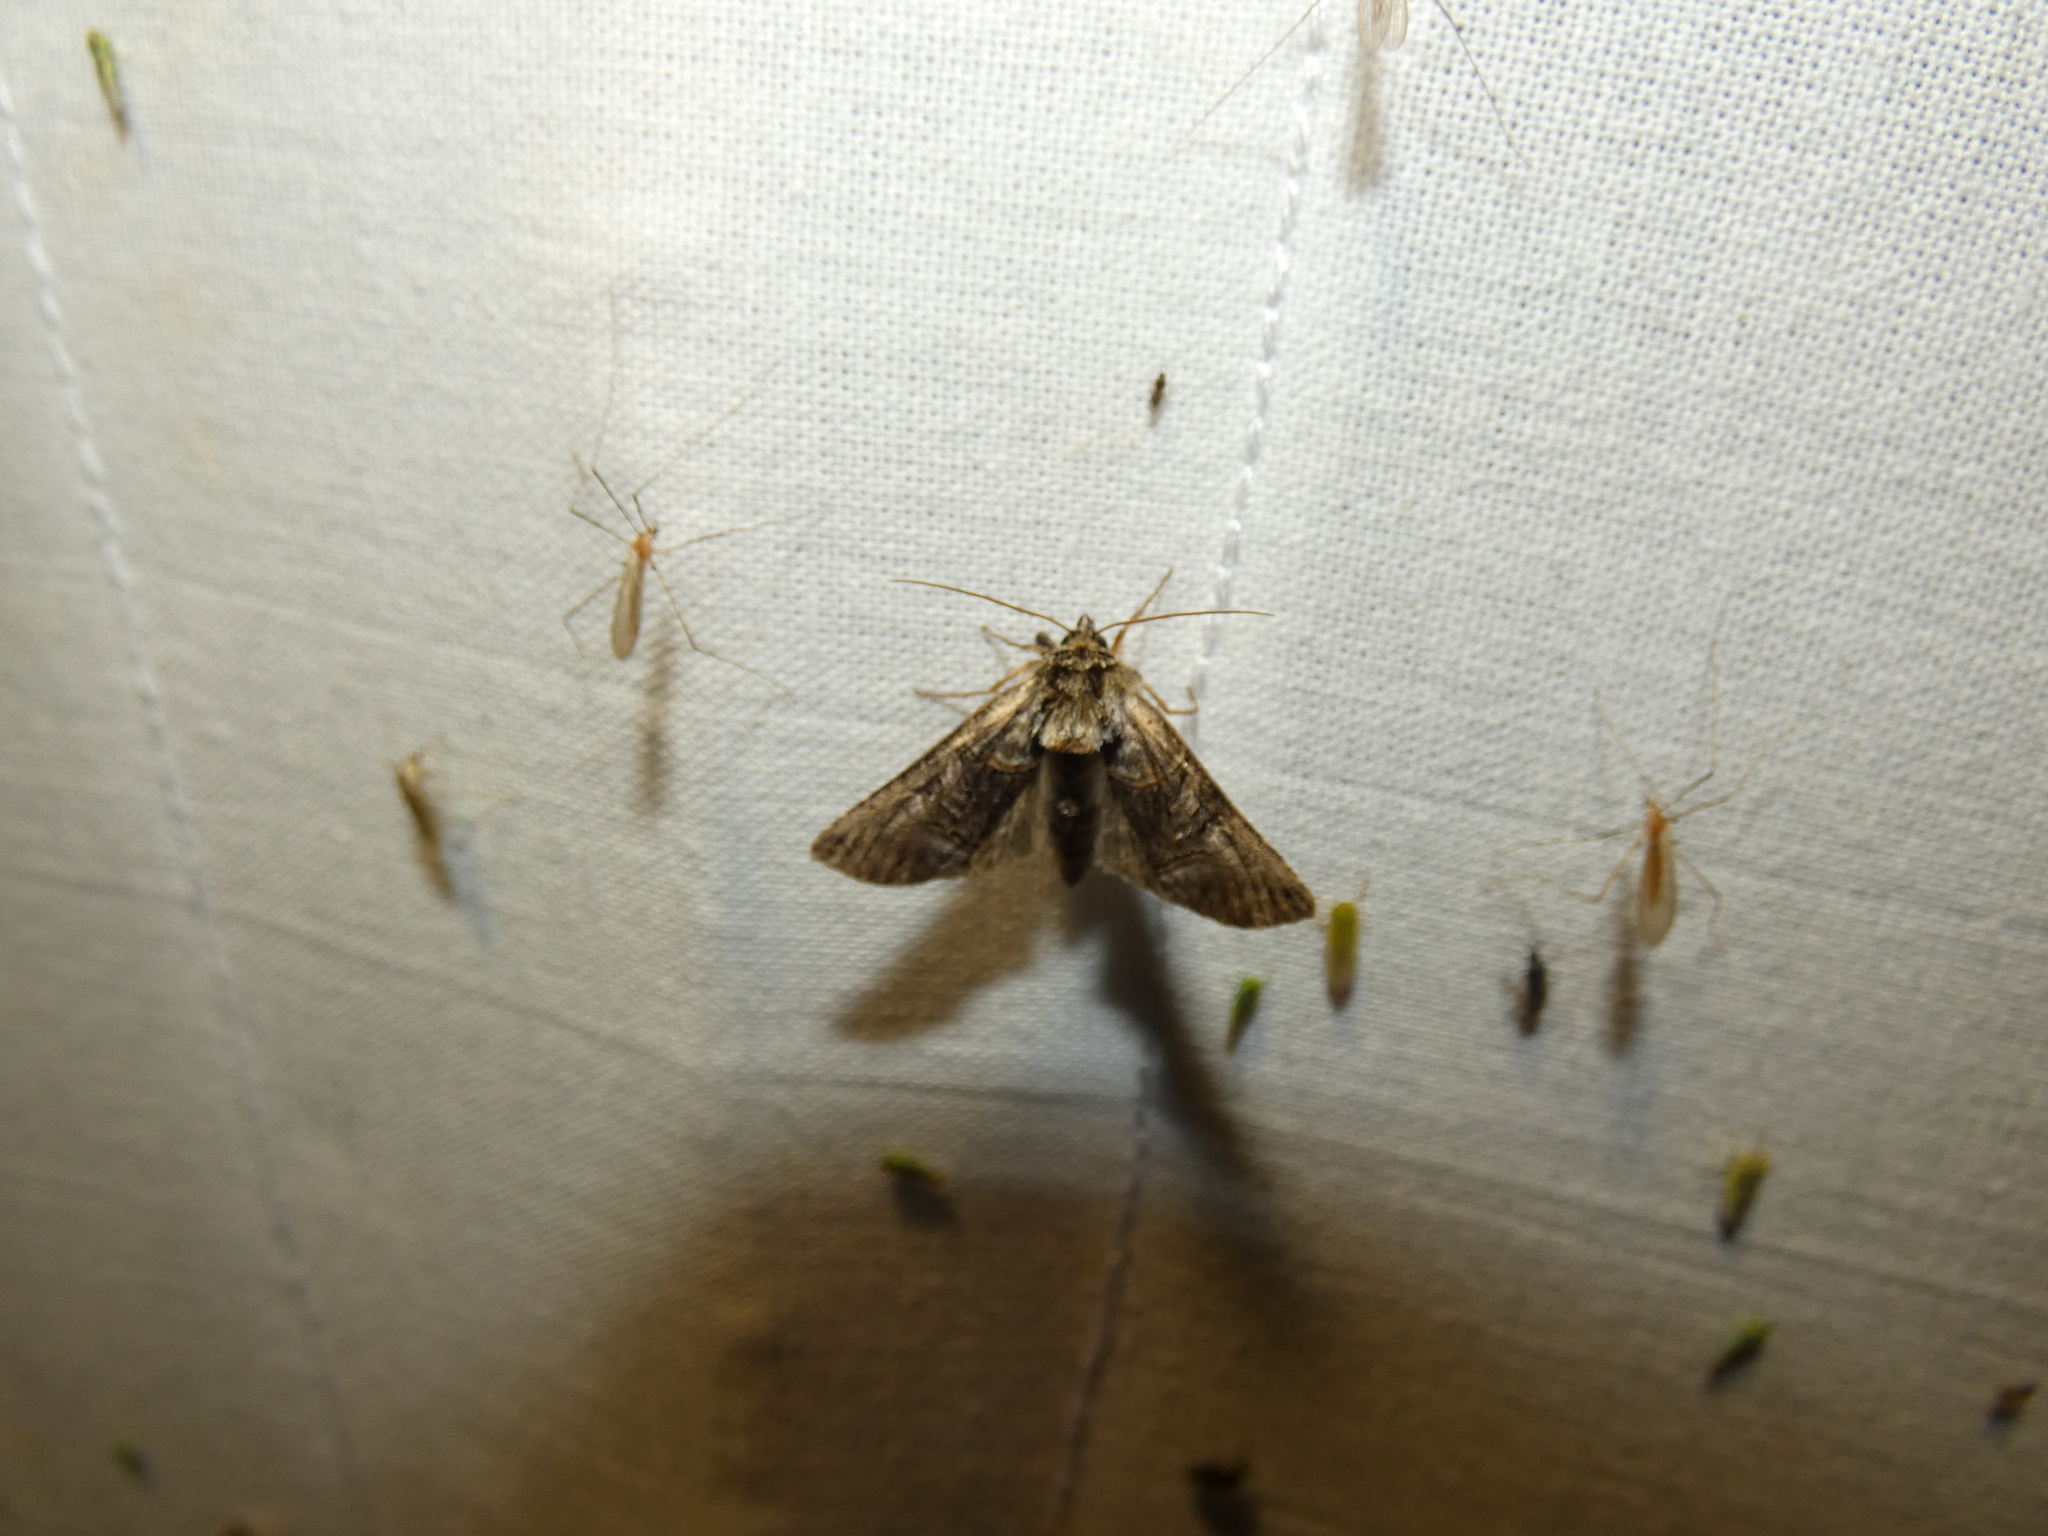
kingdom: Animalia
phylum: Arthropoda
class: Insecta
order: Lepidoptera
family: Noctuidae
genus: Abrostola
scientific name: Abrostola tripartita
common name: Spectacle
